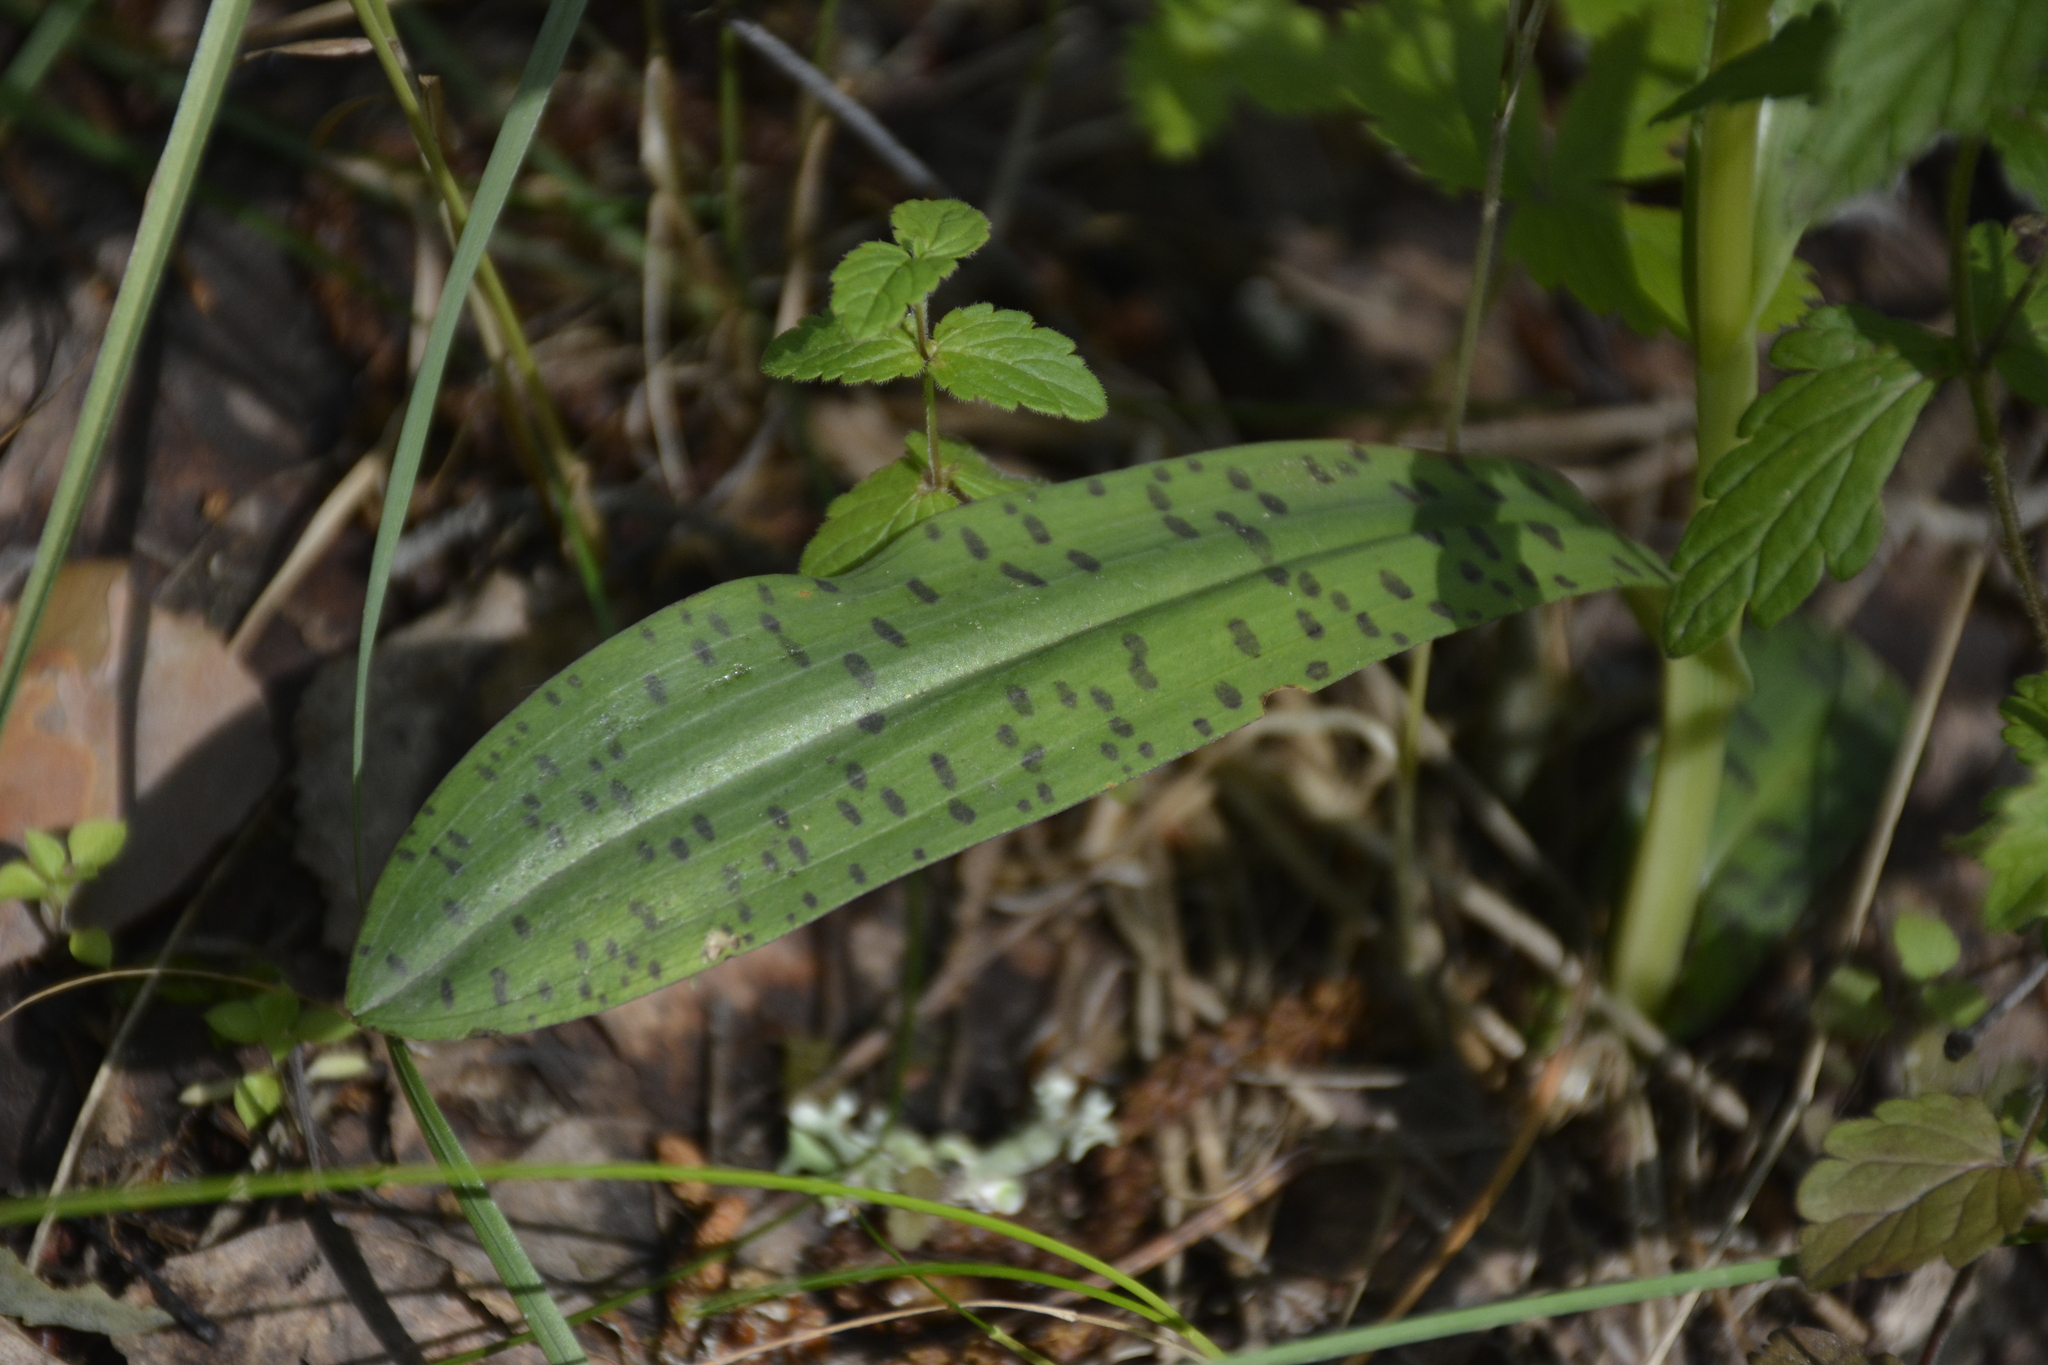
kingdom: Plantae
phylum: Tracheophyta
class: Liliopsida
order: Asparagales
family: Orchidaceae
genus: Dactylorhiza
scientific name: Dactylorhiza maculata
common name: Heath spotted-orchid
